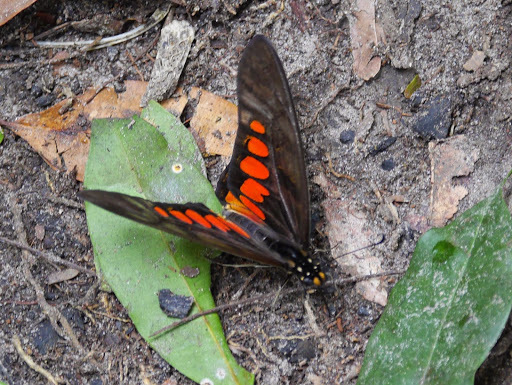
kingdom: Animalia
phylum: Arthropoda
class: Insecta
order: Lepidoptera
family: Papilionidae
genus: Graphium
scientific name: Graphium ridleyanus
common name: Acraea swordtail
